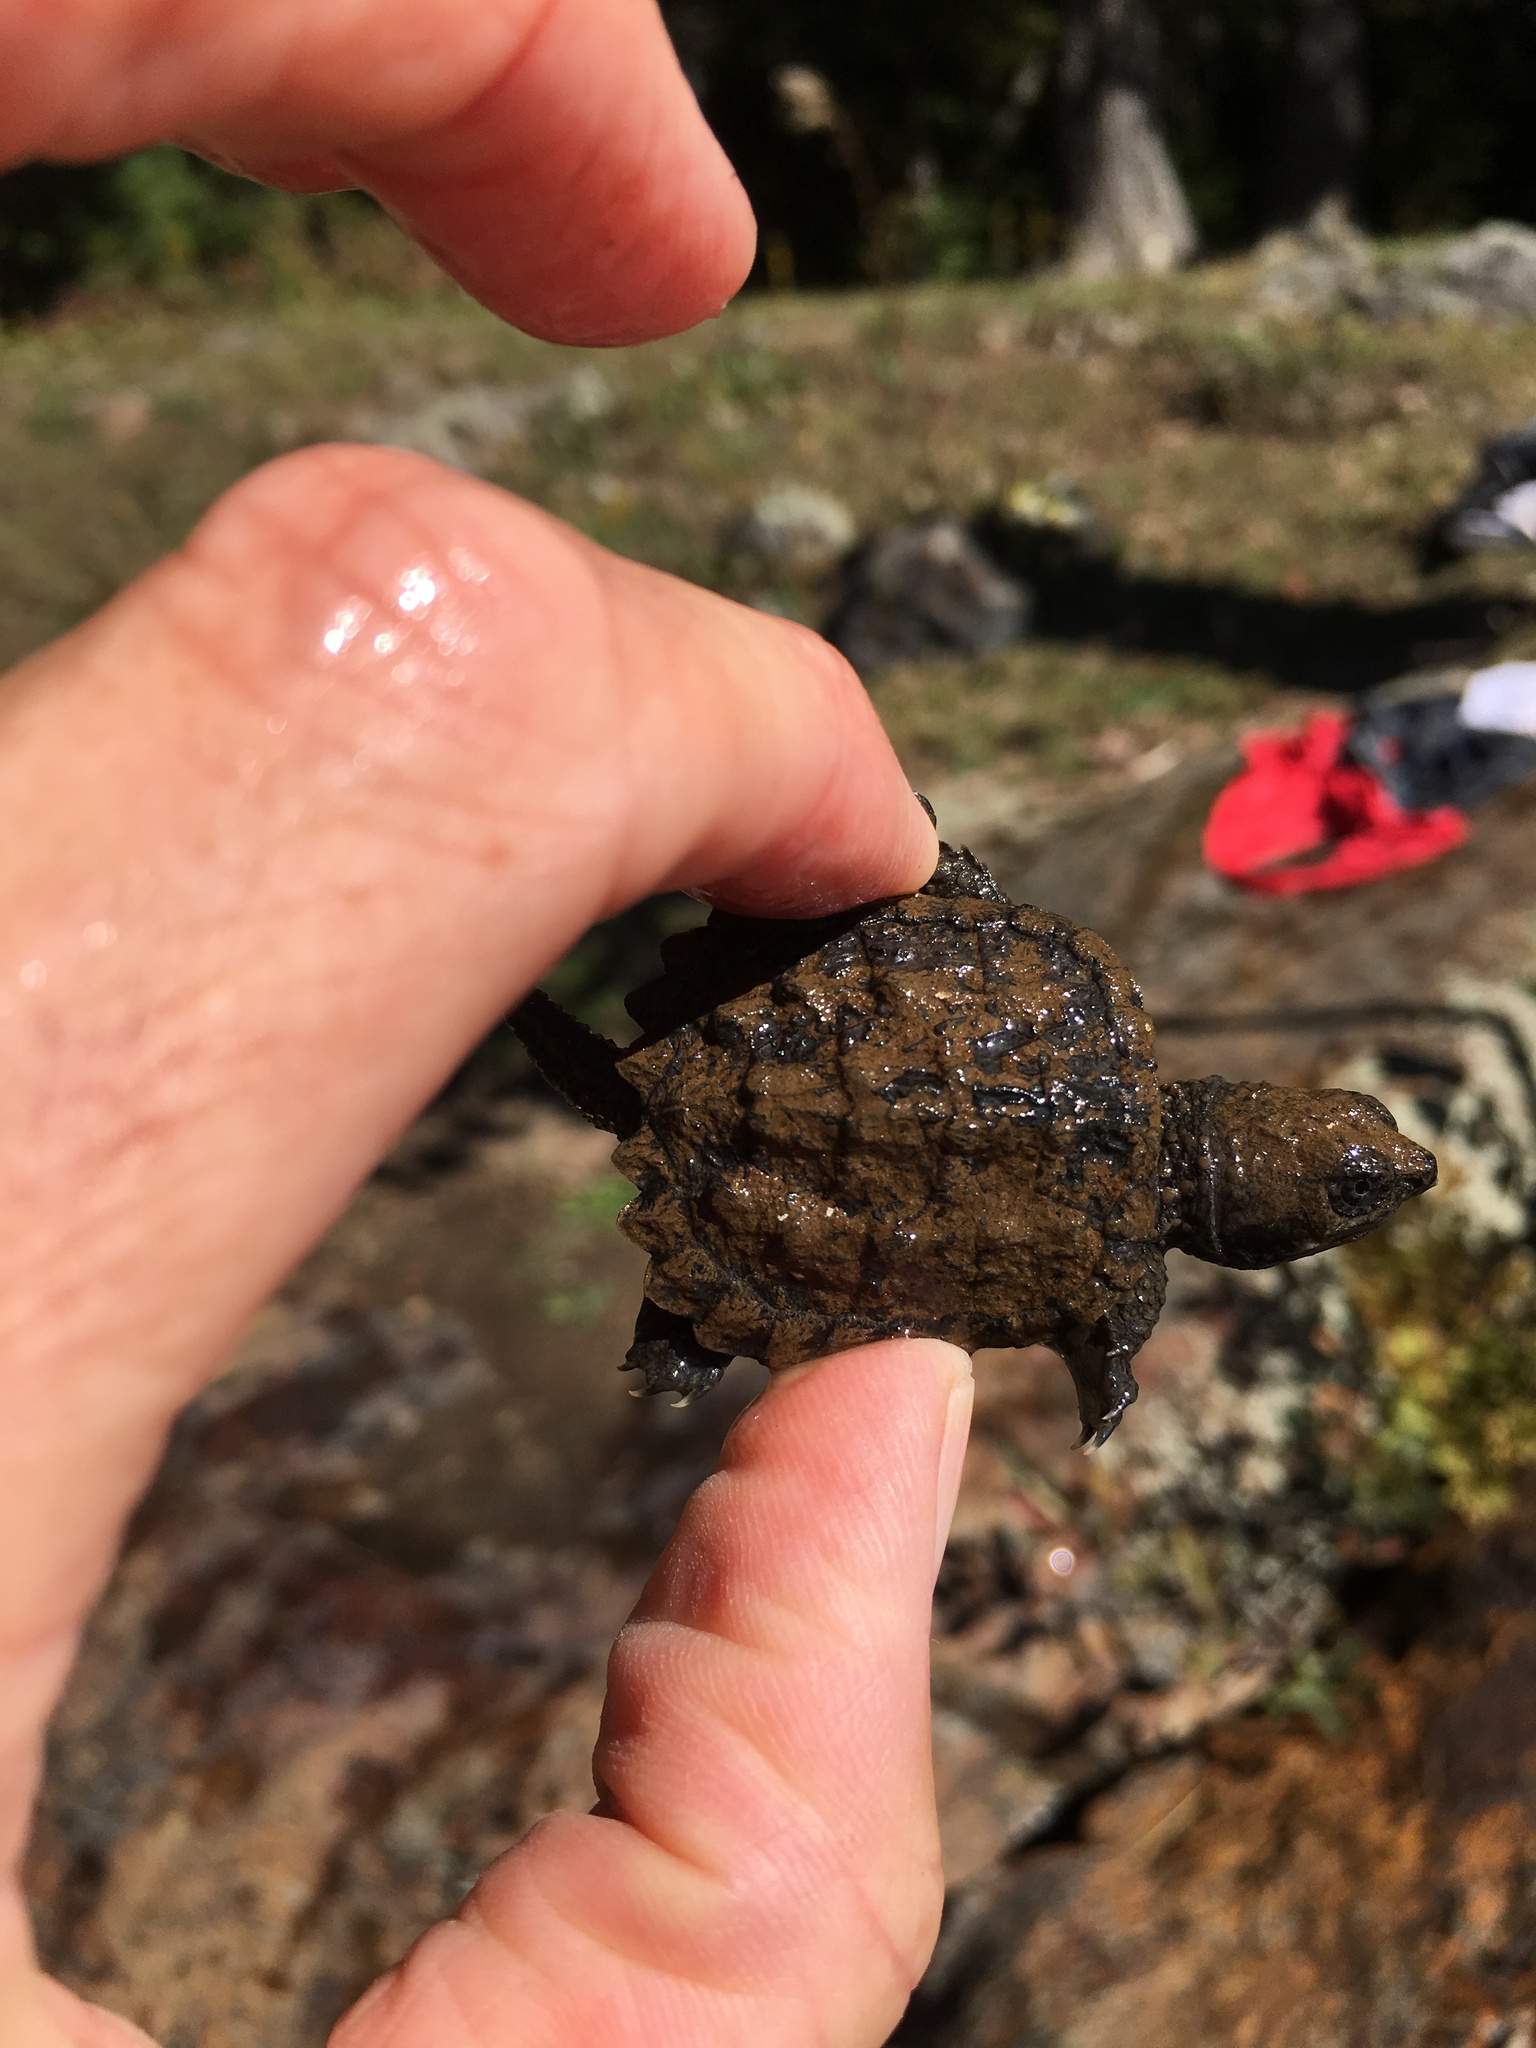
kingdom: Animalia
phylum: Chordata
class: Testudines
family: Chelydridae
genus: Chelydra
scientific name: Chelydra serpentina
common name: Common snapping turtle
